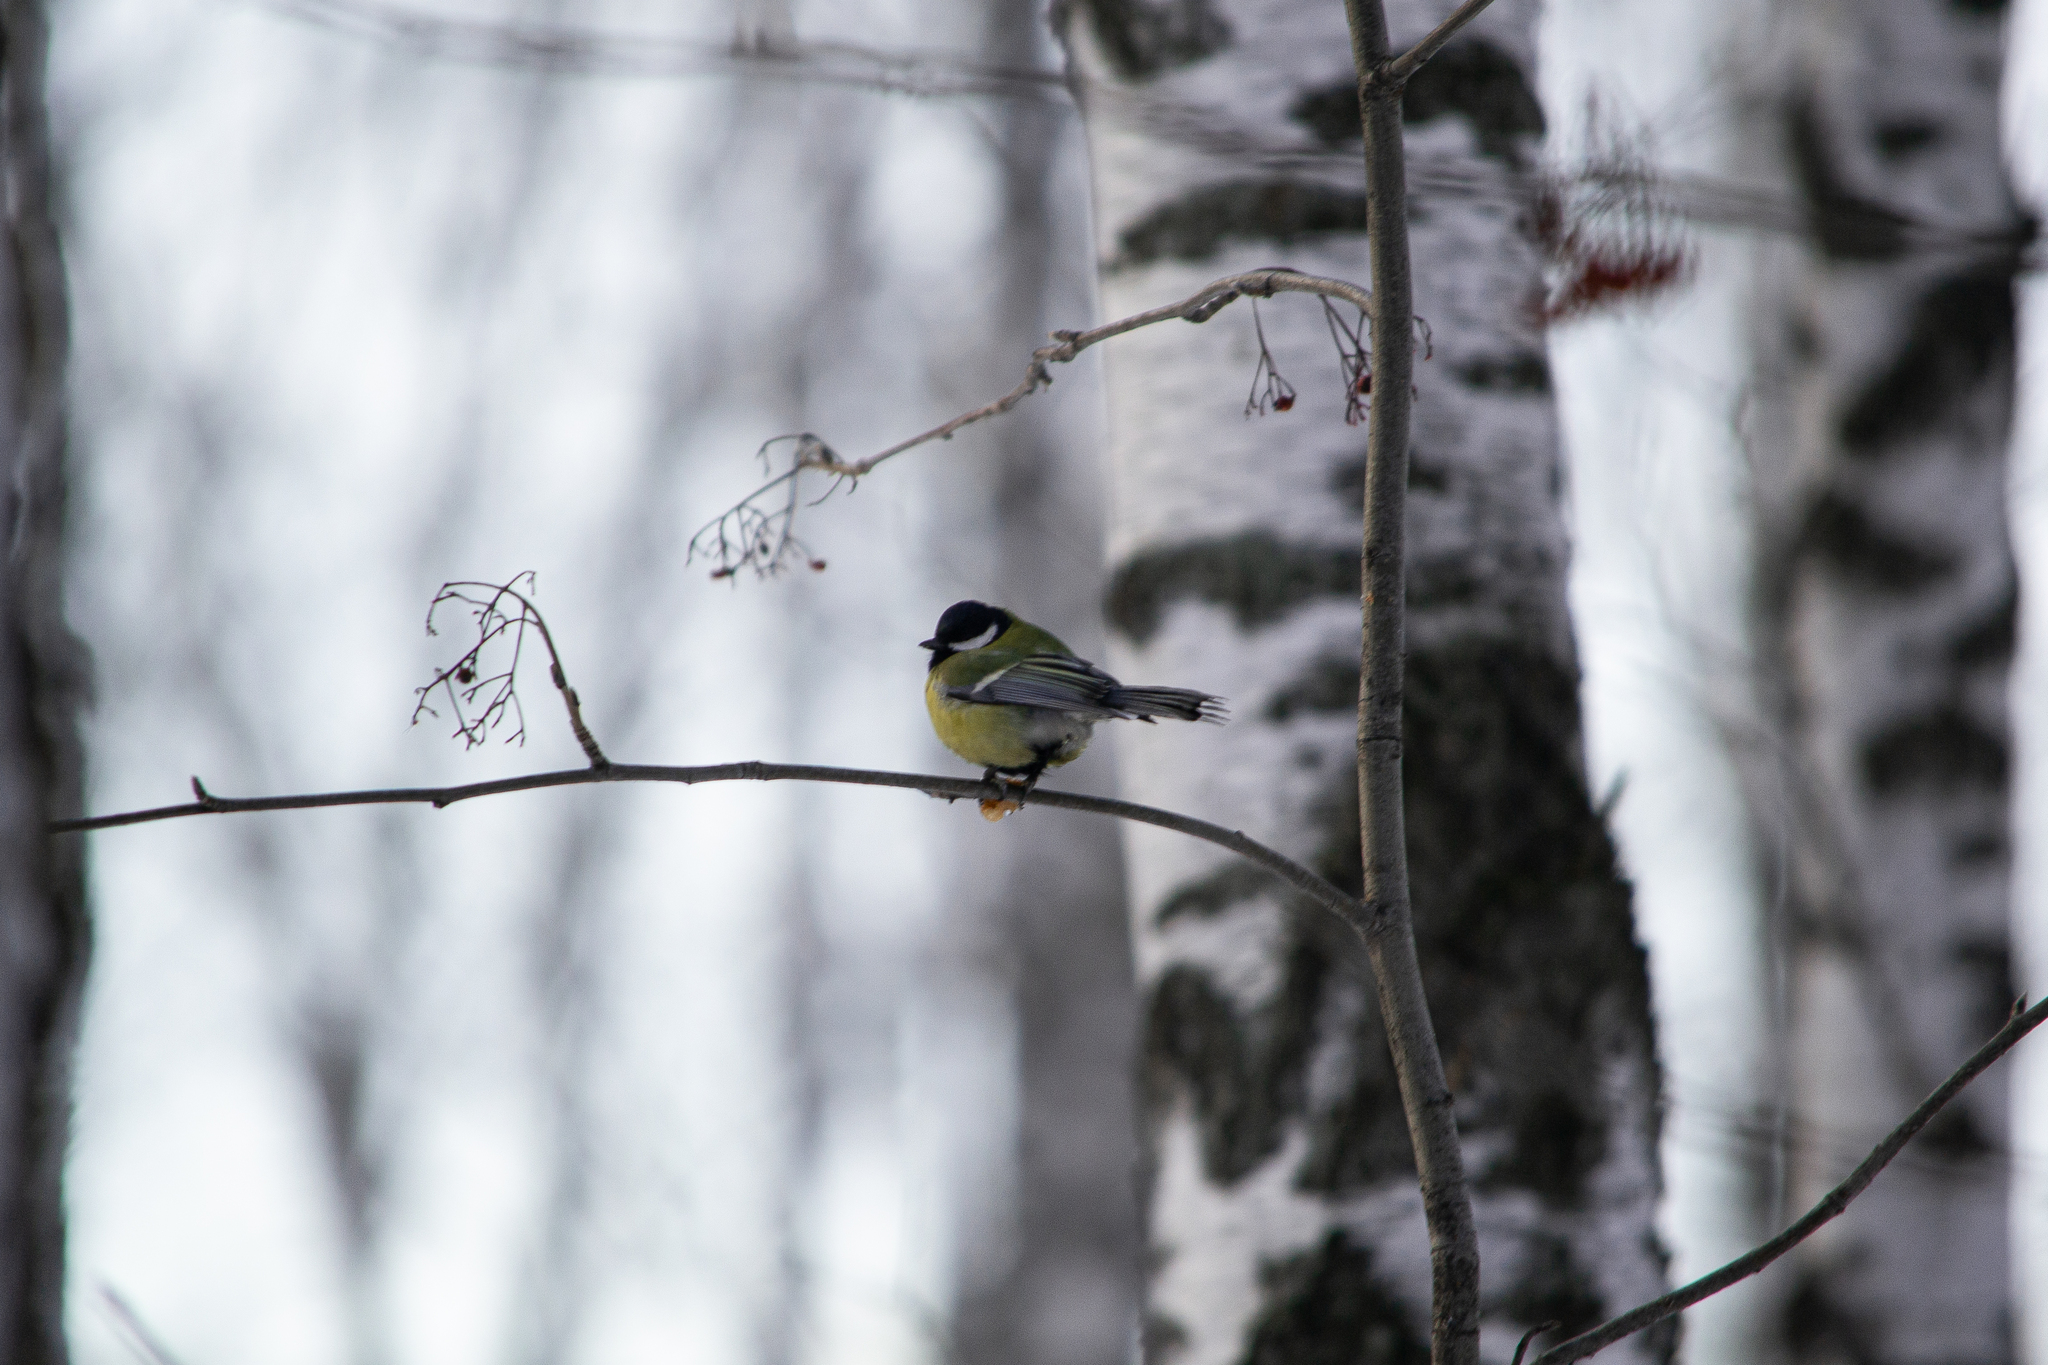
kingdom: Animalia
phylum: Chordata
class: Aves
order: Passeriformes
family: Paridae
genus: Parus
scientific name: Parus major
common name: Great tit
